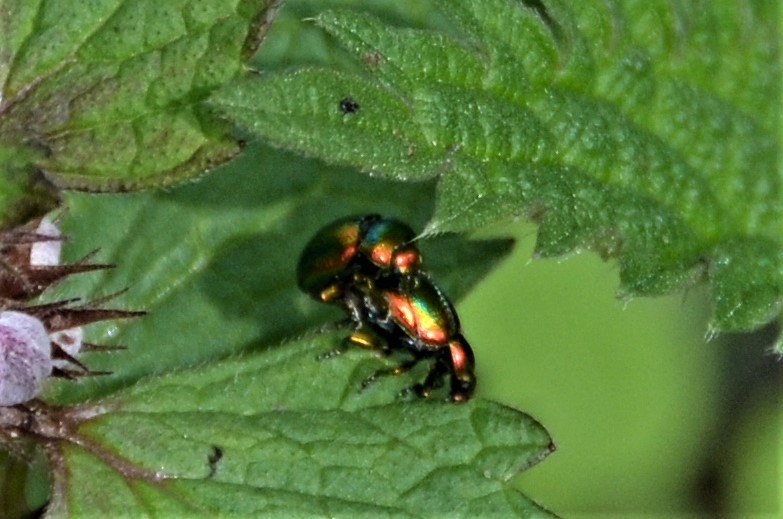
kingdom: Animalia
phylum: Arthropoda
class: Insecta
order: Coleoptera
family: Chrysomelidae
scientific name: Chrysomelidae
